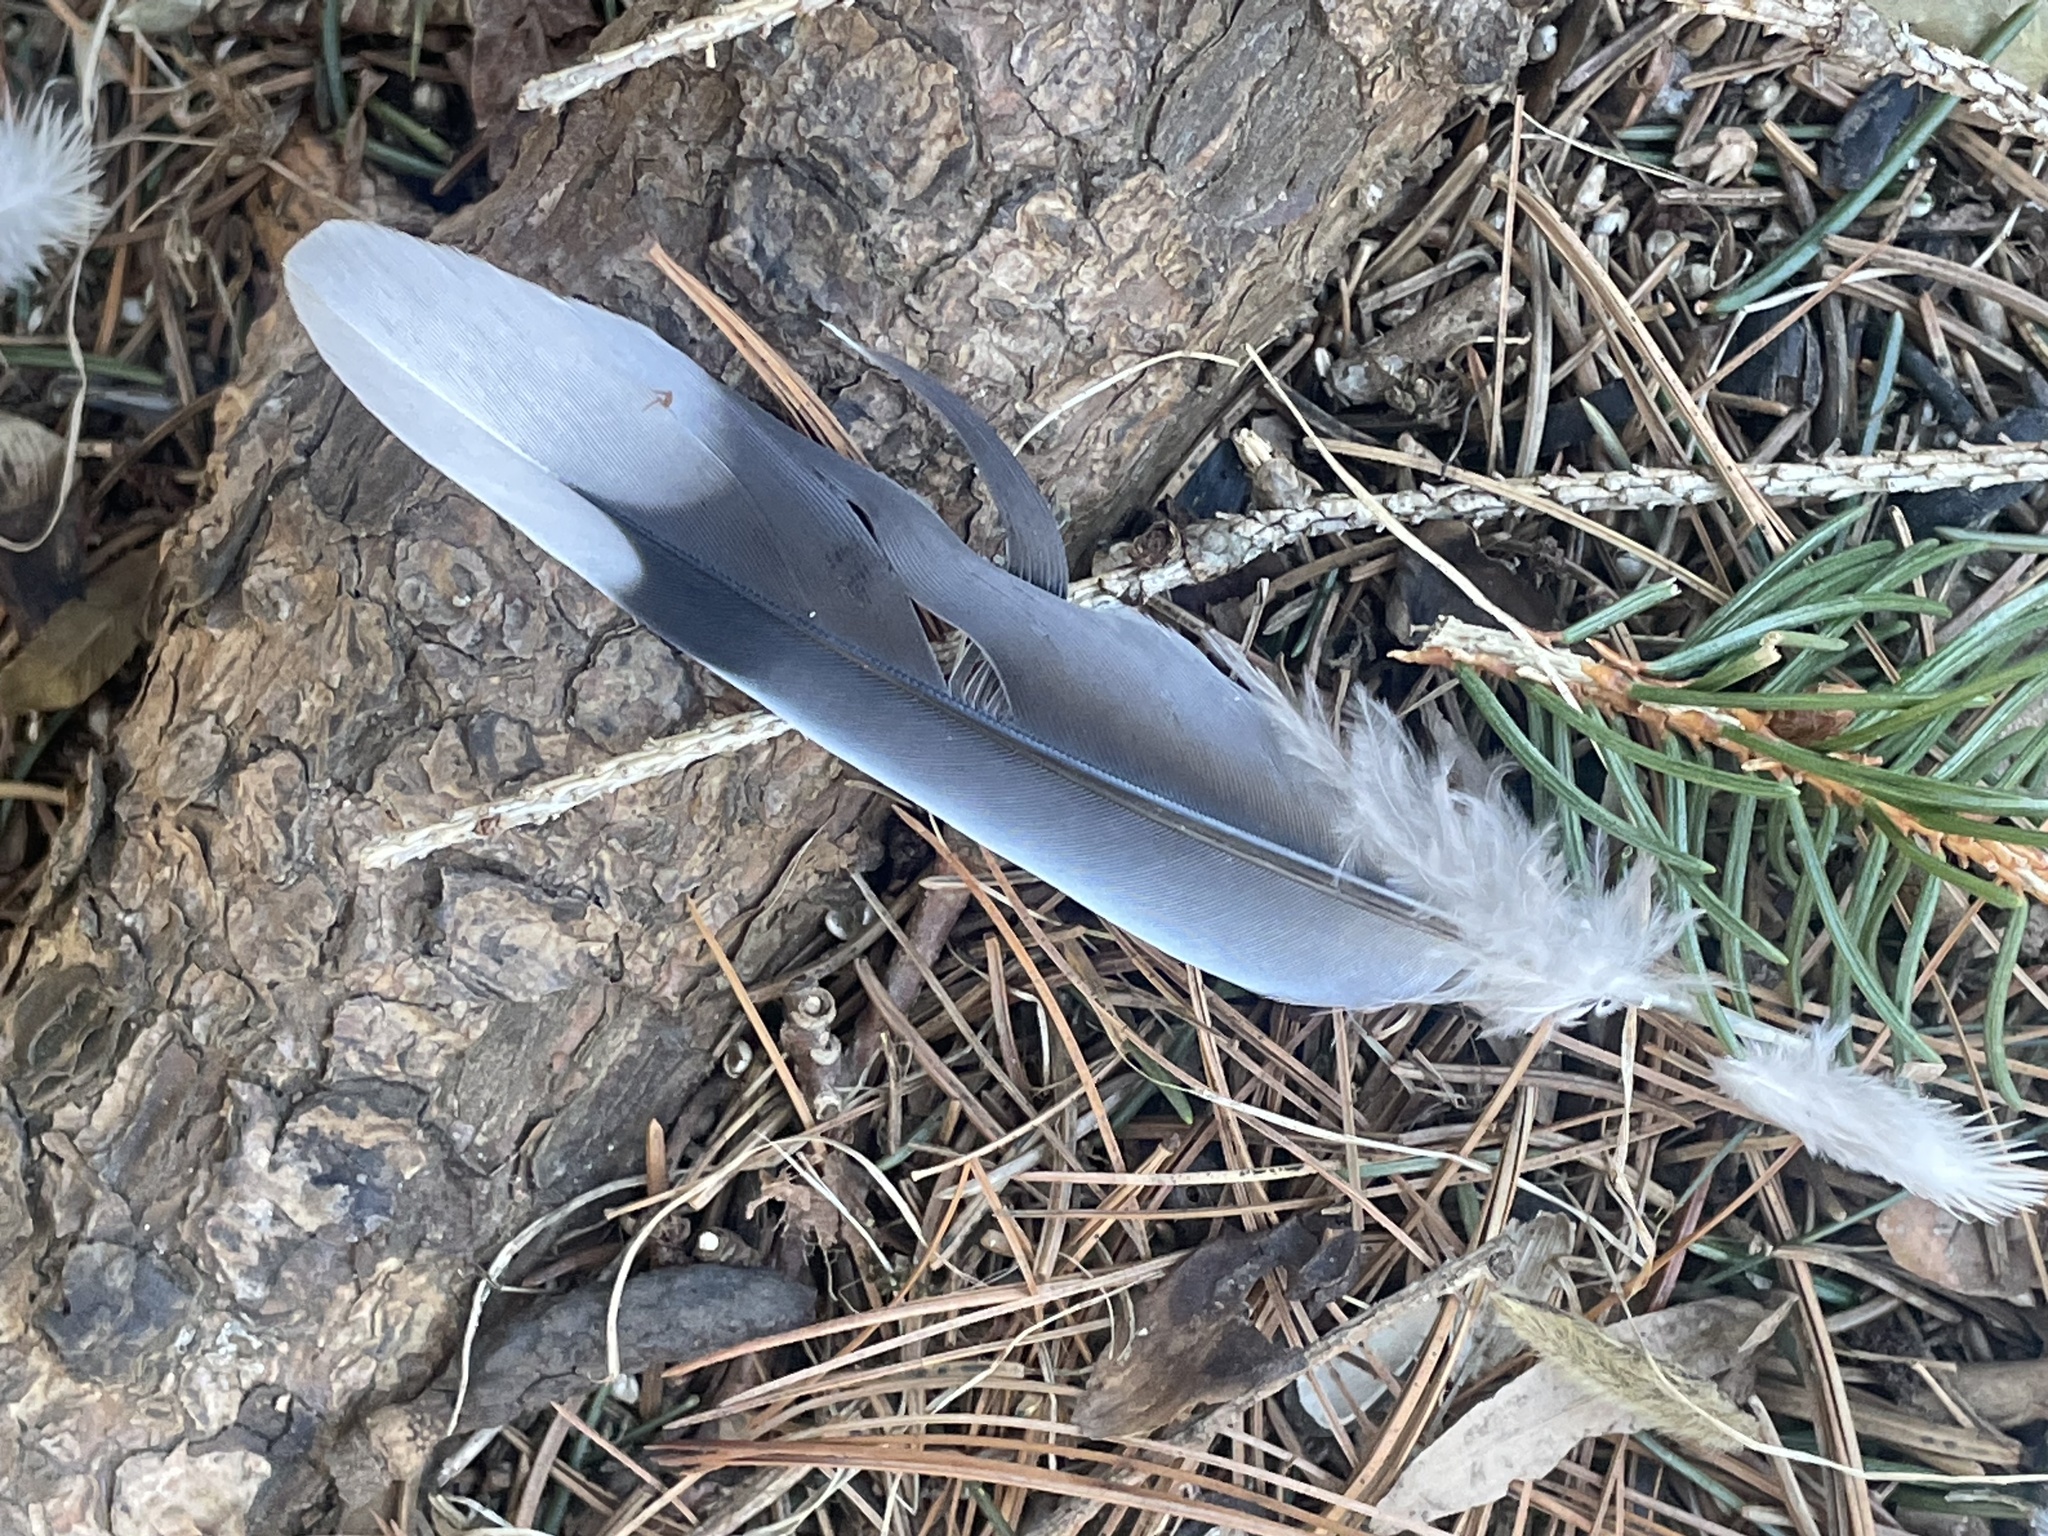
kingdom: Animalia
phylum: Chordata
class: Aves
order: Columbiformes
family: Columbidae
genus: Zenaida
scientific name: Zenaida macroura
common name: Mourning dove
